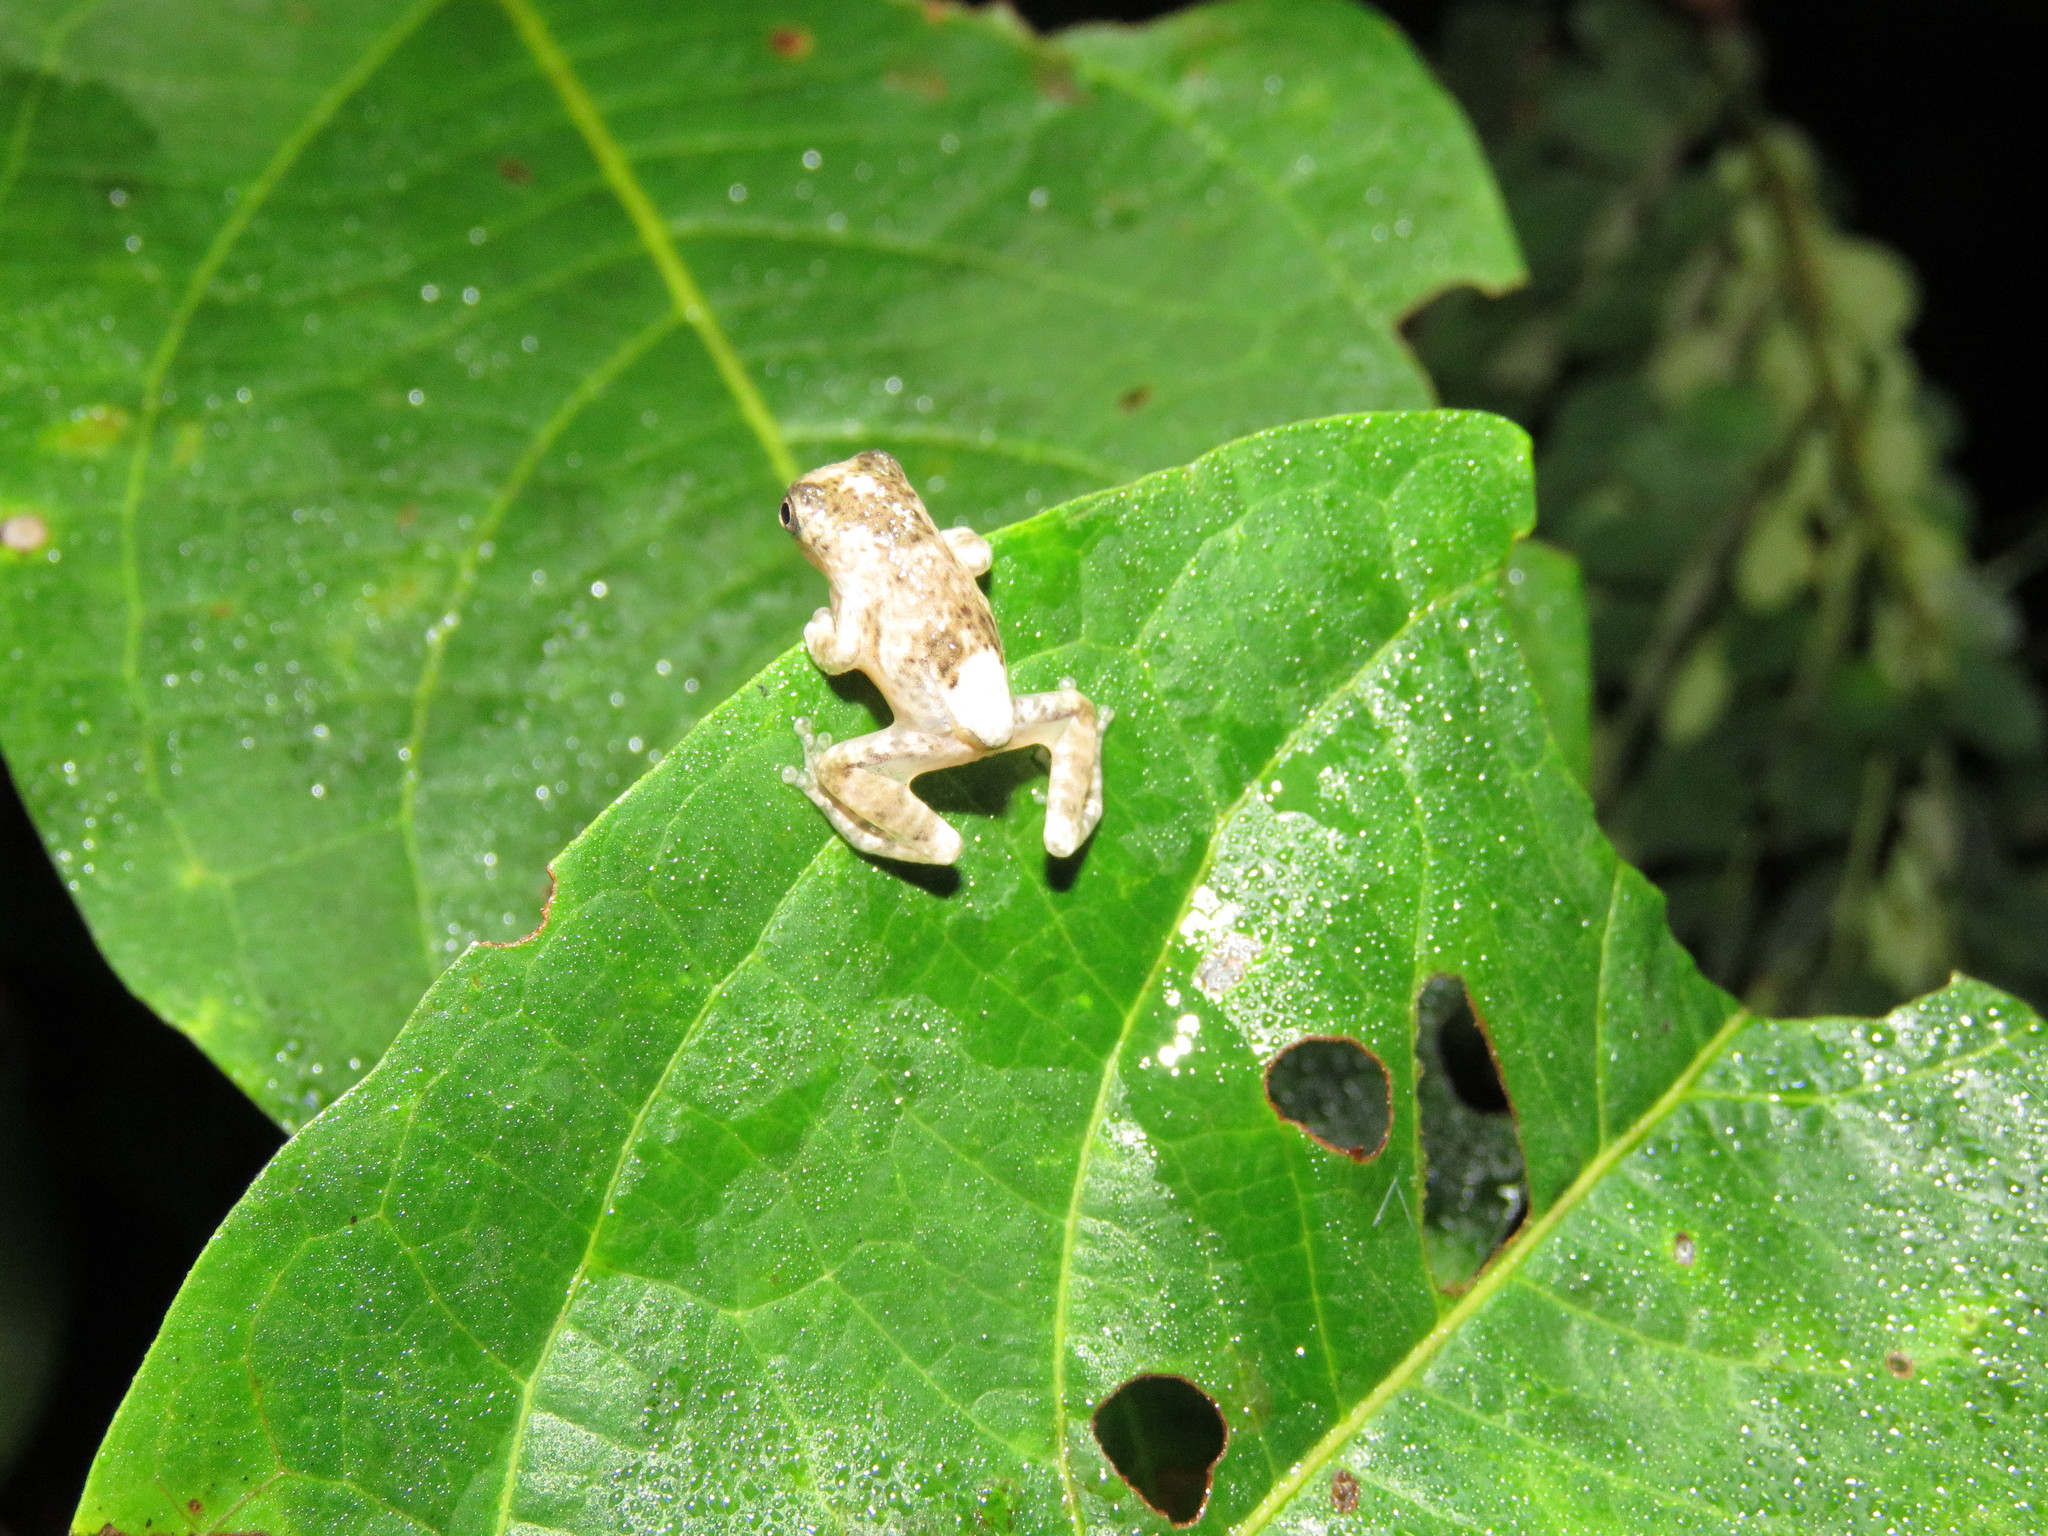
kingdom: Animalia
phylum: Chordata
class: Amphibia
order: Anura
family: Hylidae
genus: Dendropsophus
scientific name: Dendropsophus acreanus
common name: Acre treefrog
